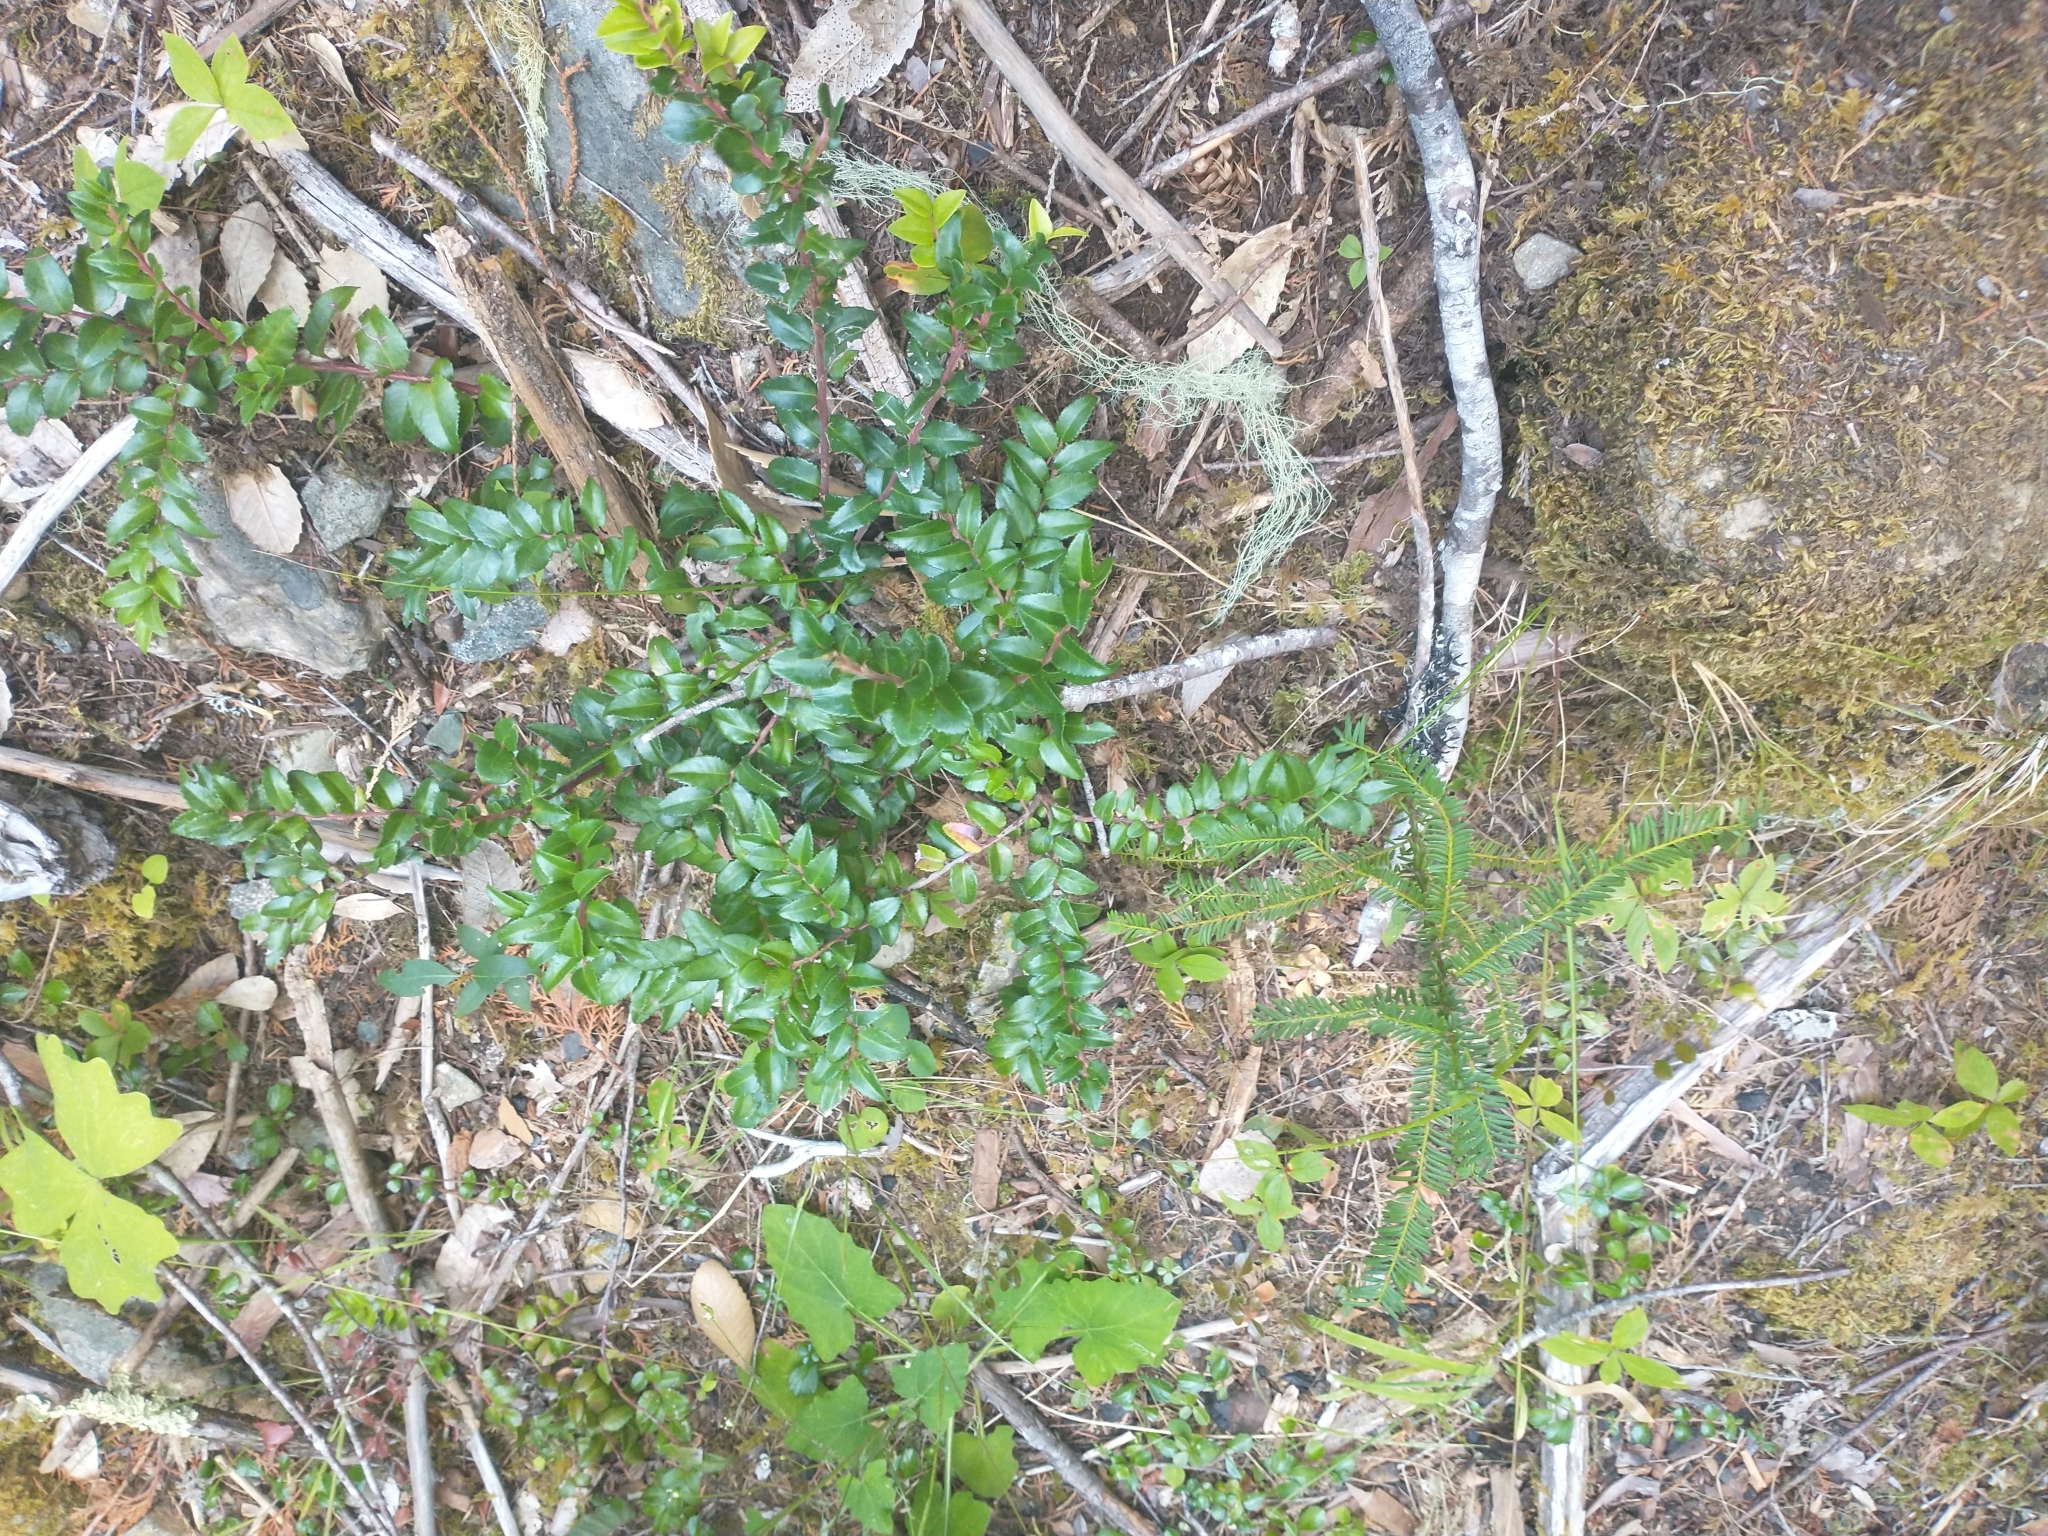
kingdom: Plantae
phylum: Tracheophyta
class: Magnoliopsida
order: Ericales
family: Primulaceae
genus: Lysimachia
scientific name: Lysimachia latifolia
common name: Pacific starflower
